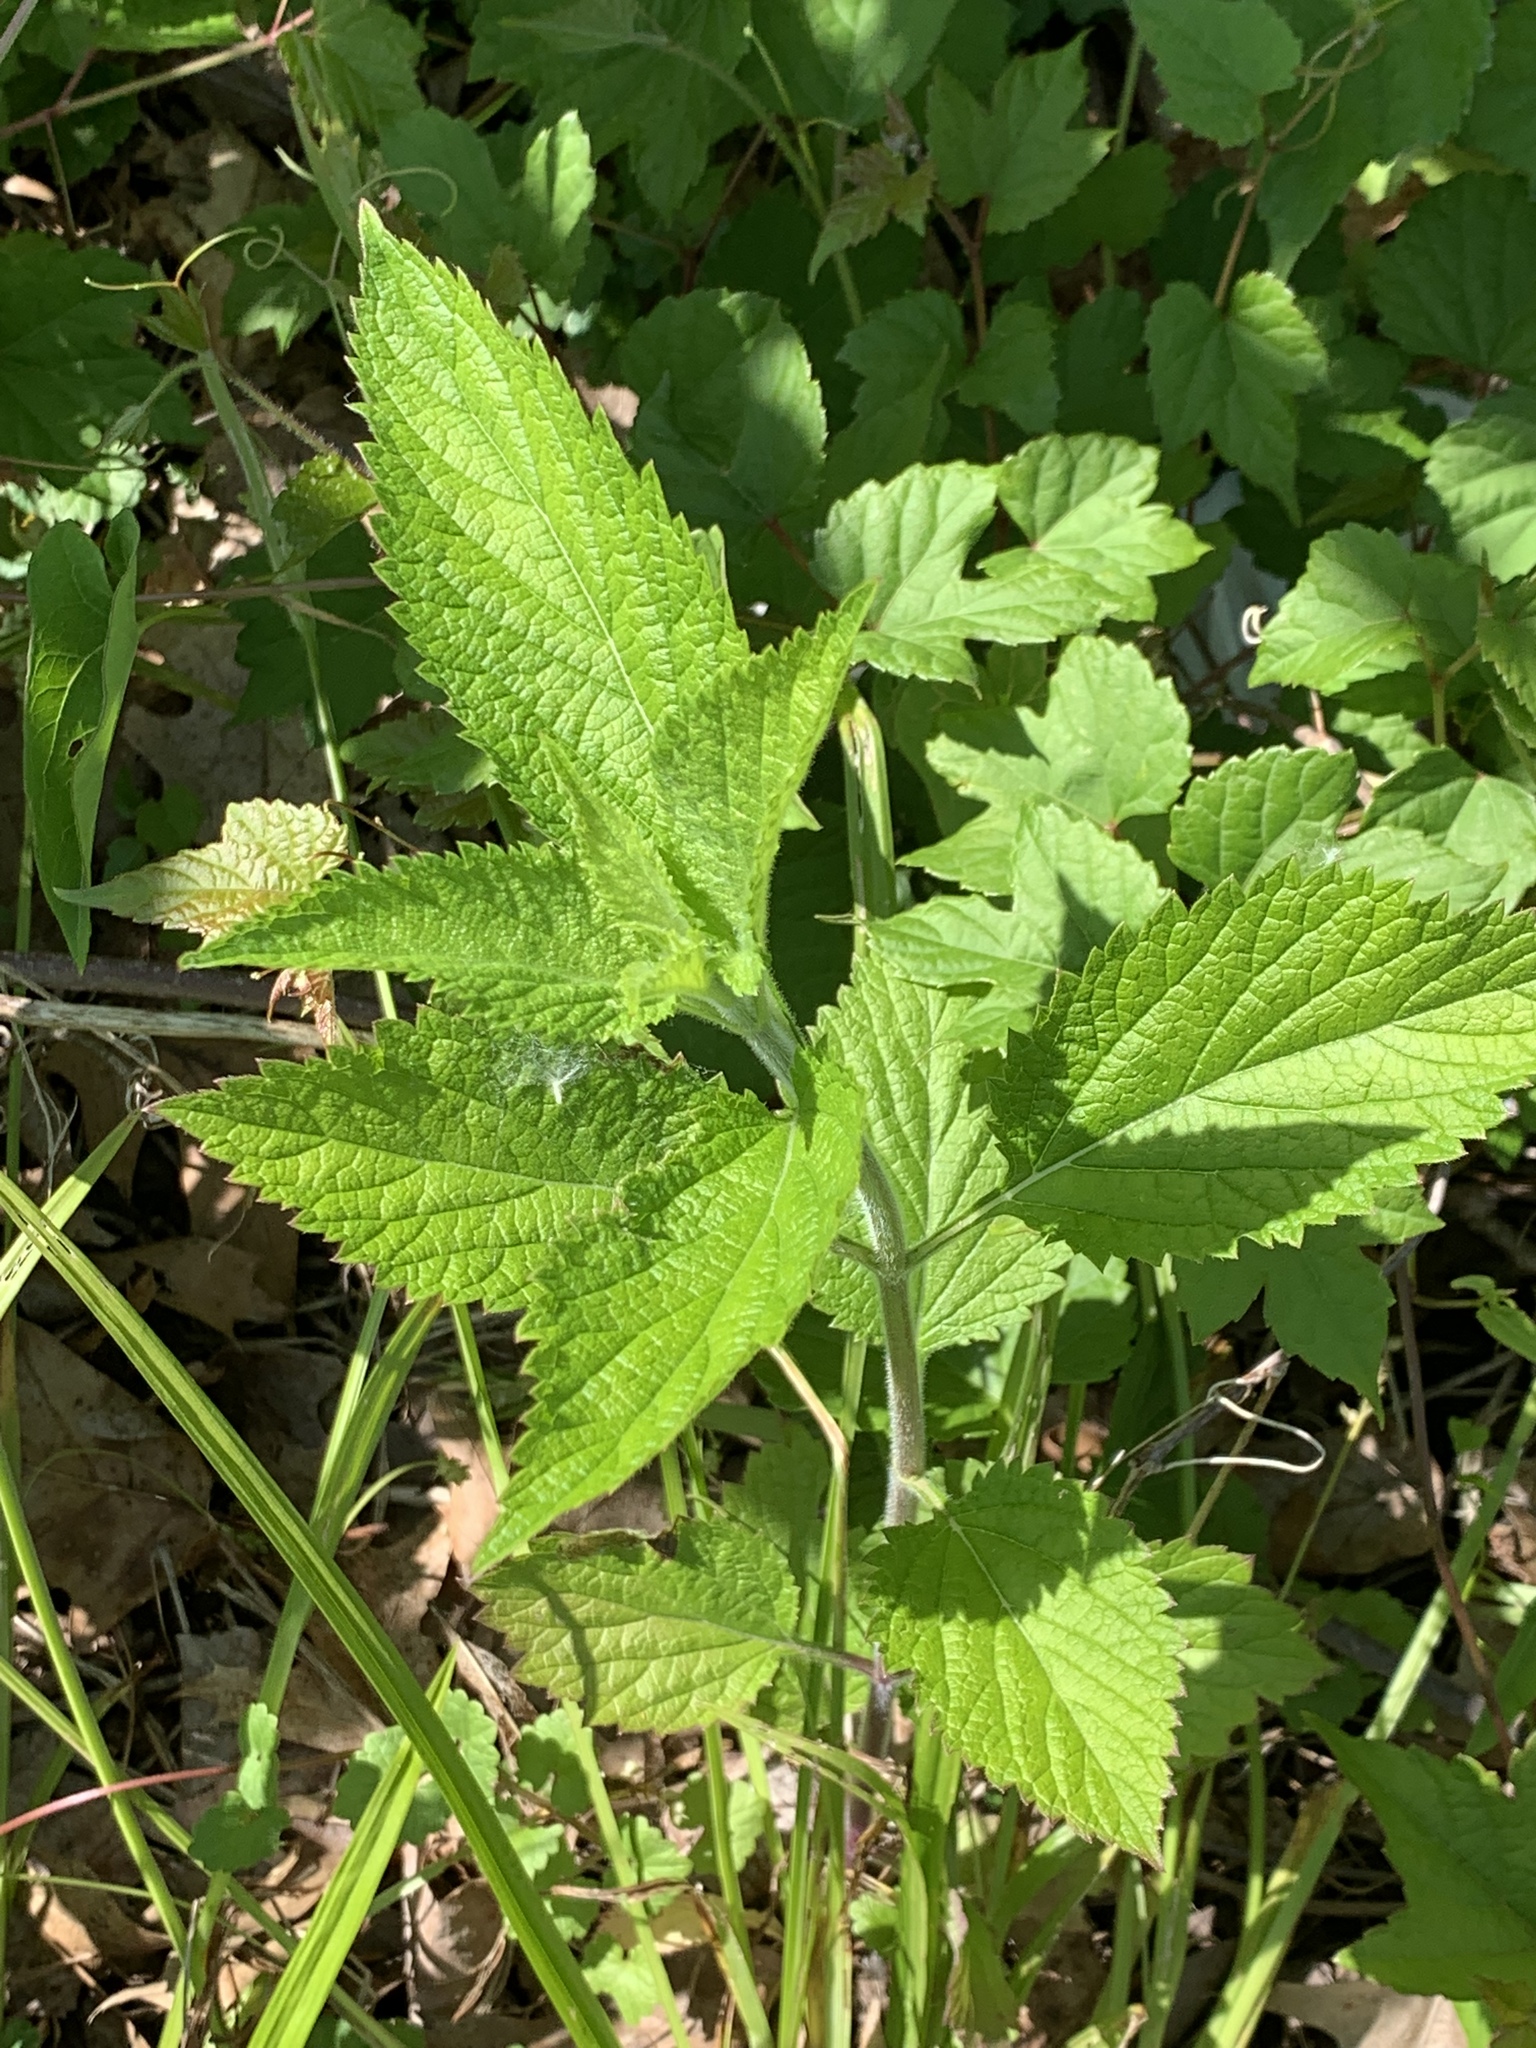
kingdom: Plantae
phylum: Tracheophyta
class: Magnoliopsida
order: Lamiales
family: Verbenaceae
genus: Verbena
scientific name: Verbena urticifolia
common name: Nettle-leaved vervain
